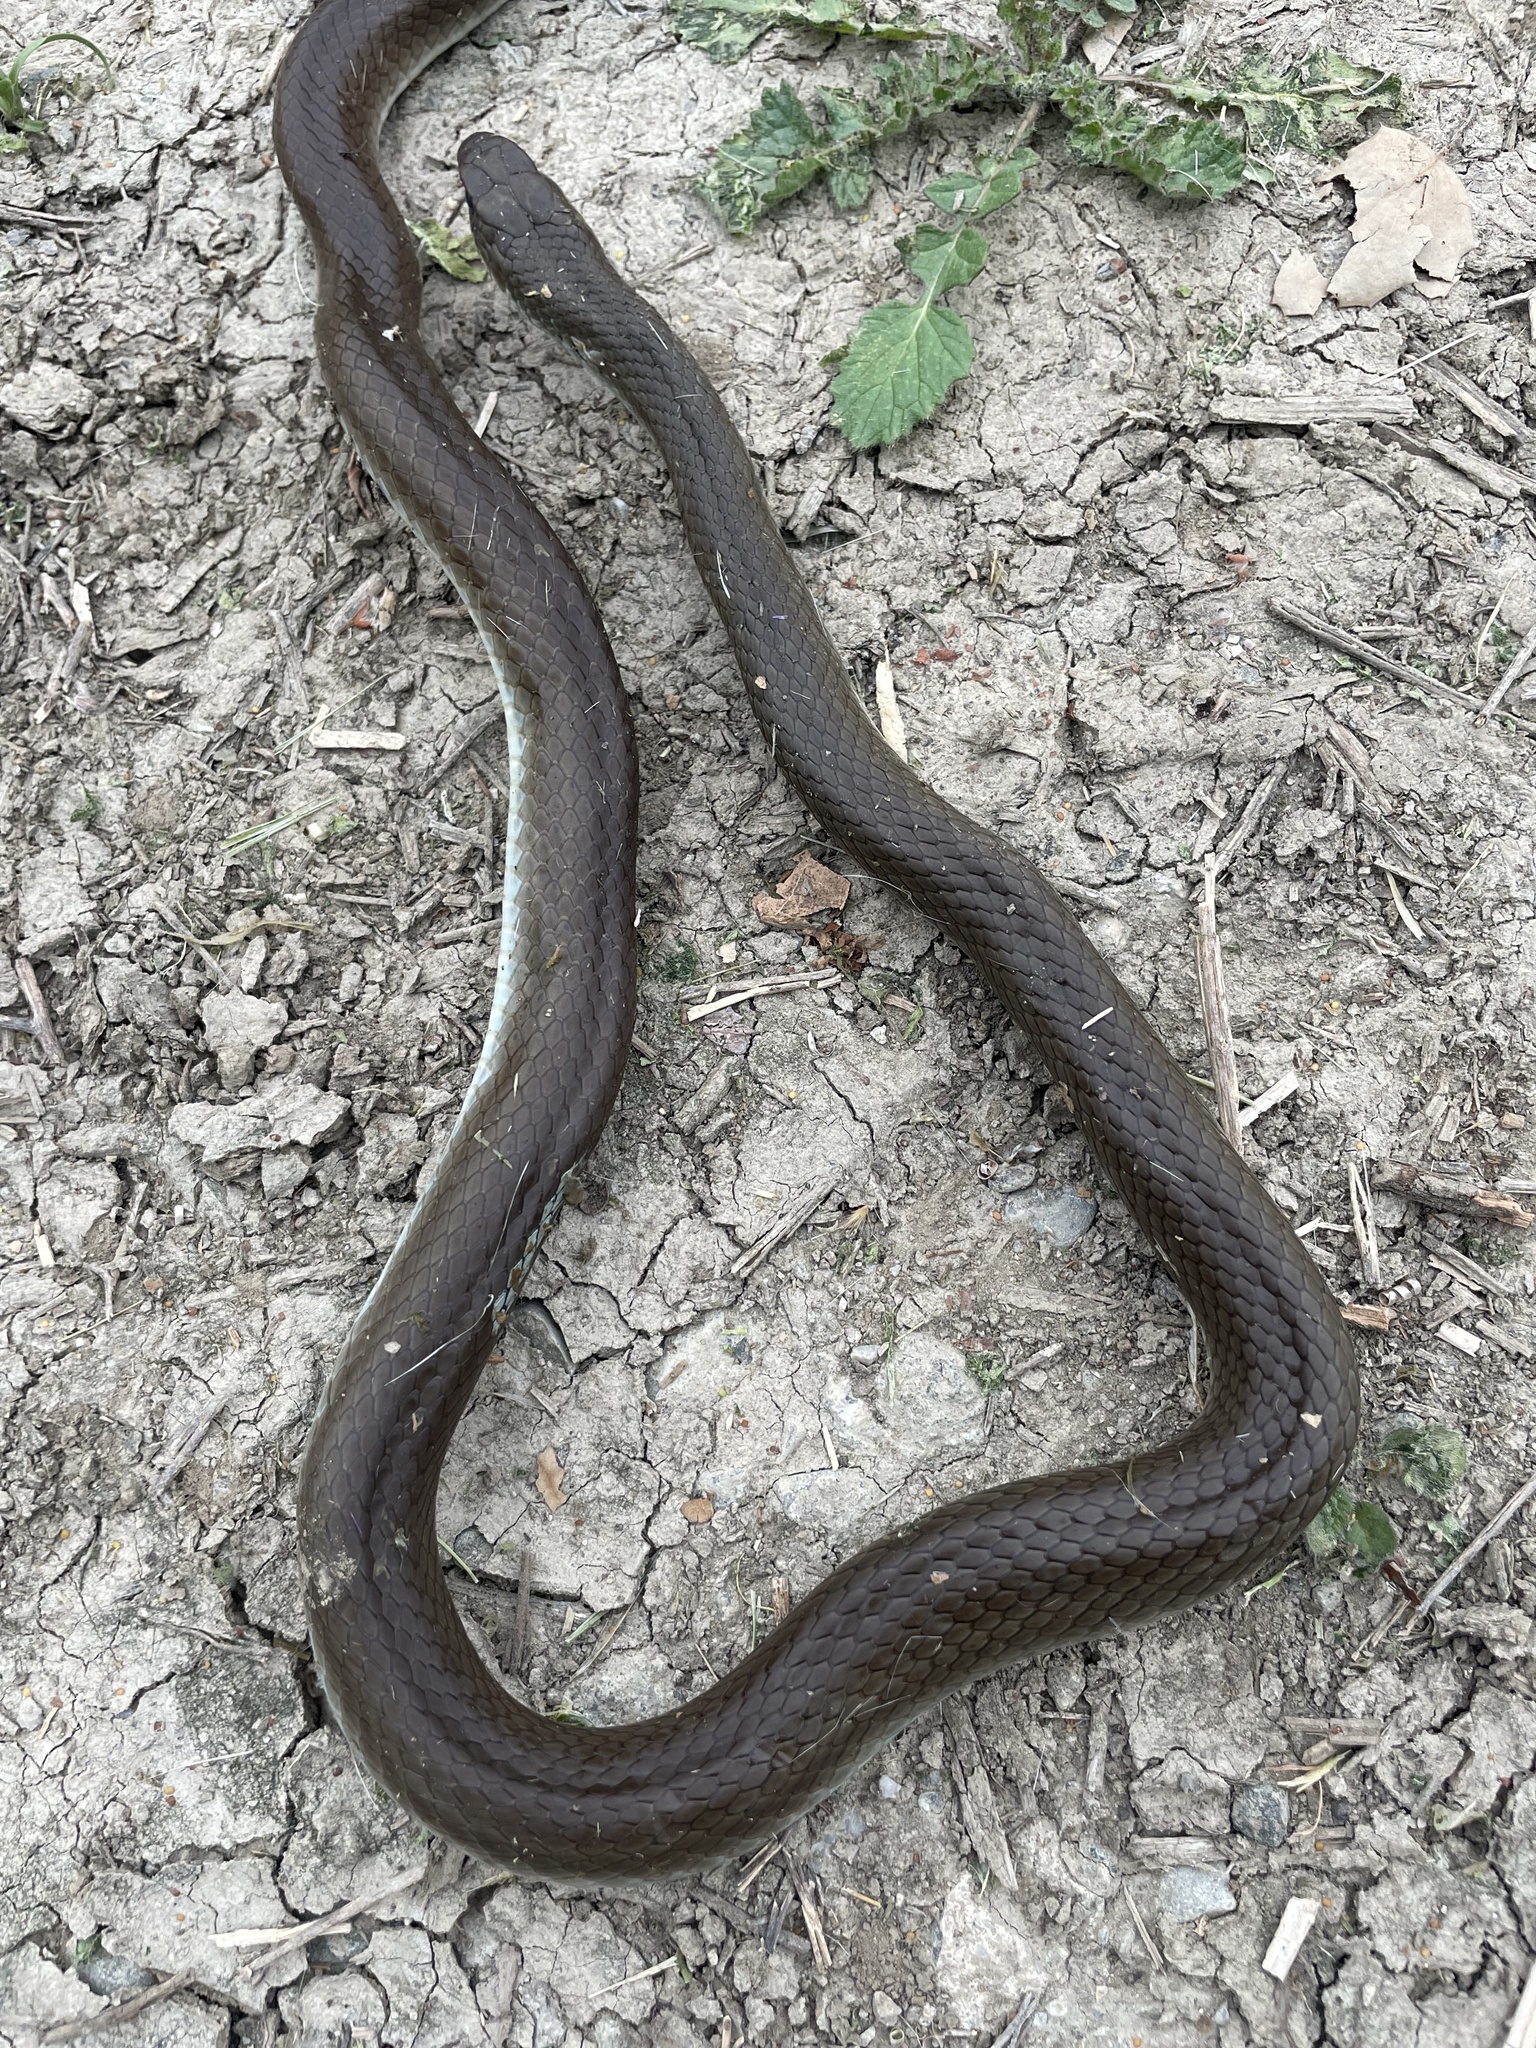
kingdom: Animalia
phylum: Chordata
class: Squamata
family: Colubridae
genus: Coluber
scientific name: Coluber constrictor
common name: Eastern racer
